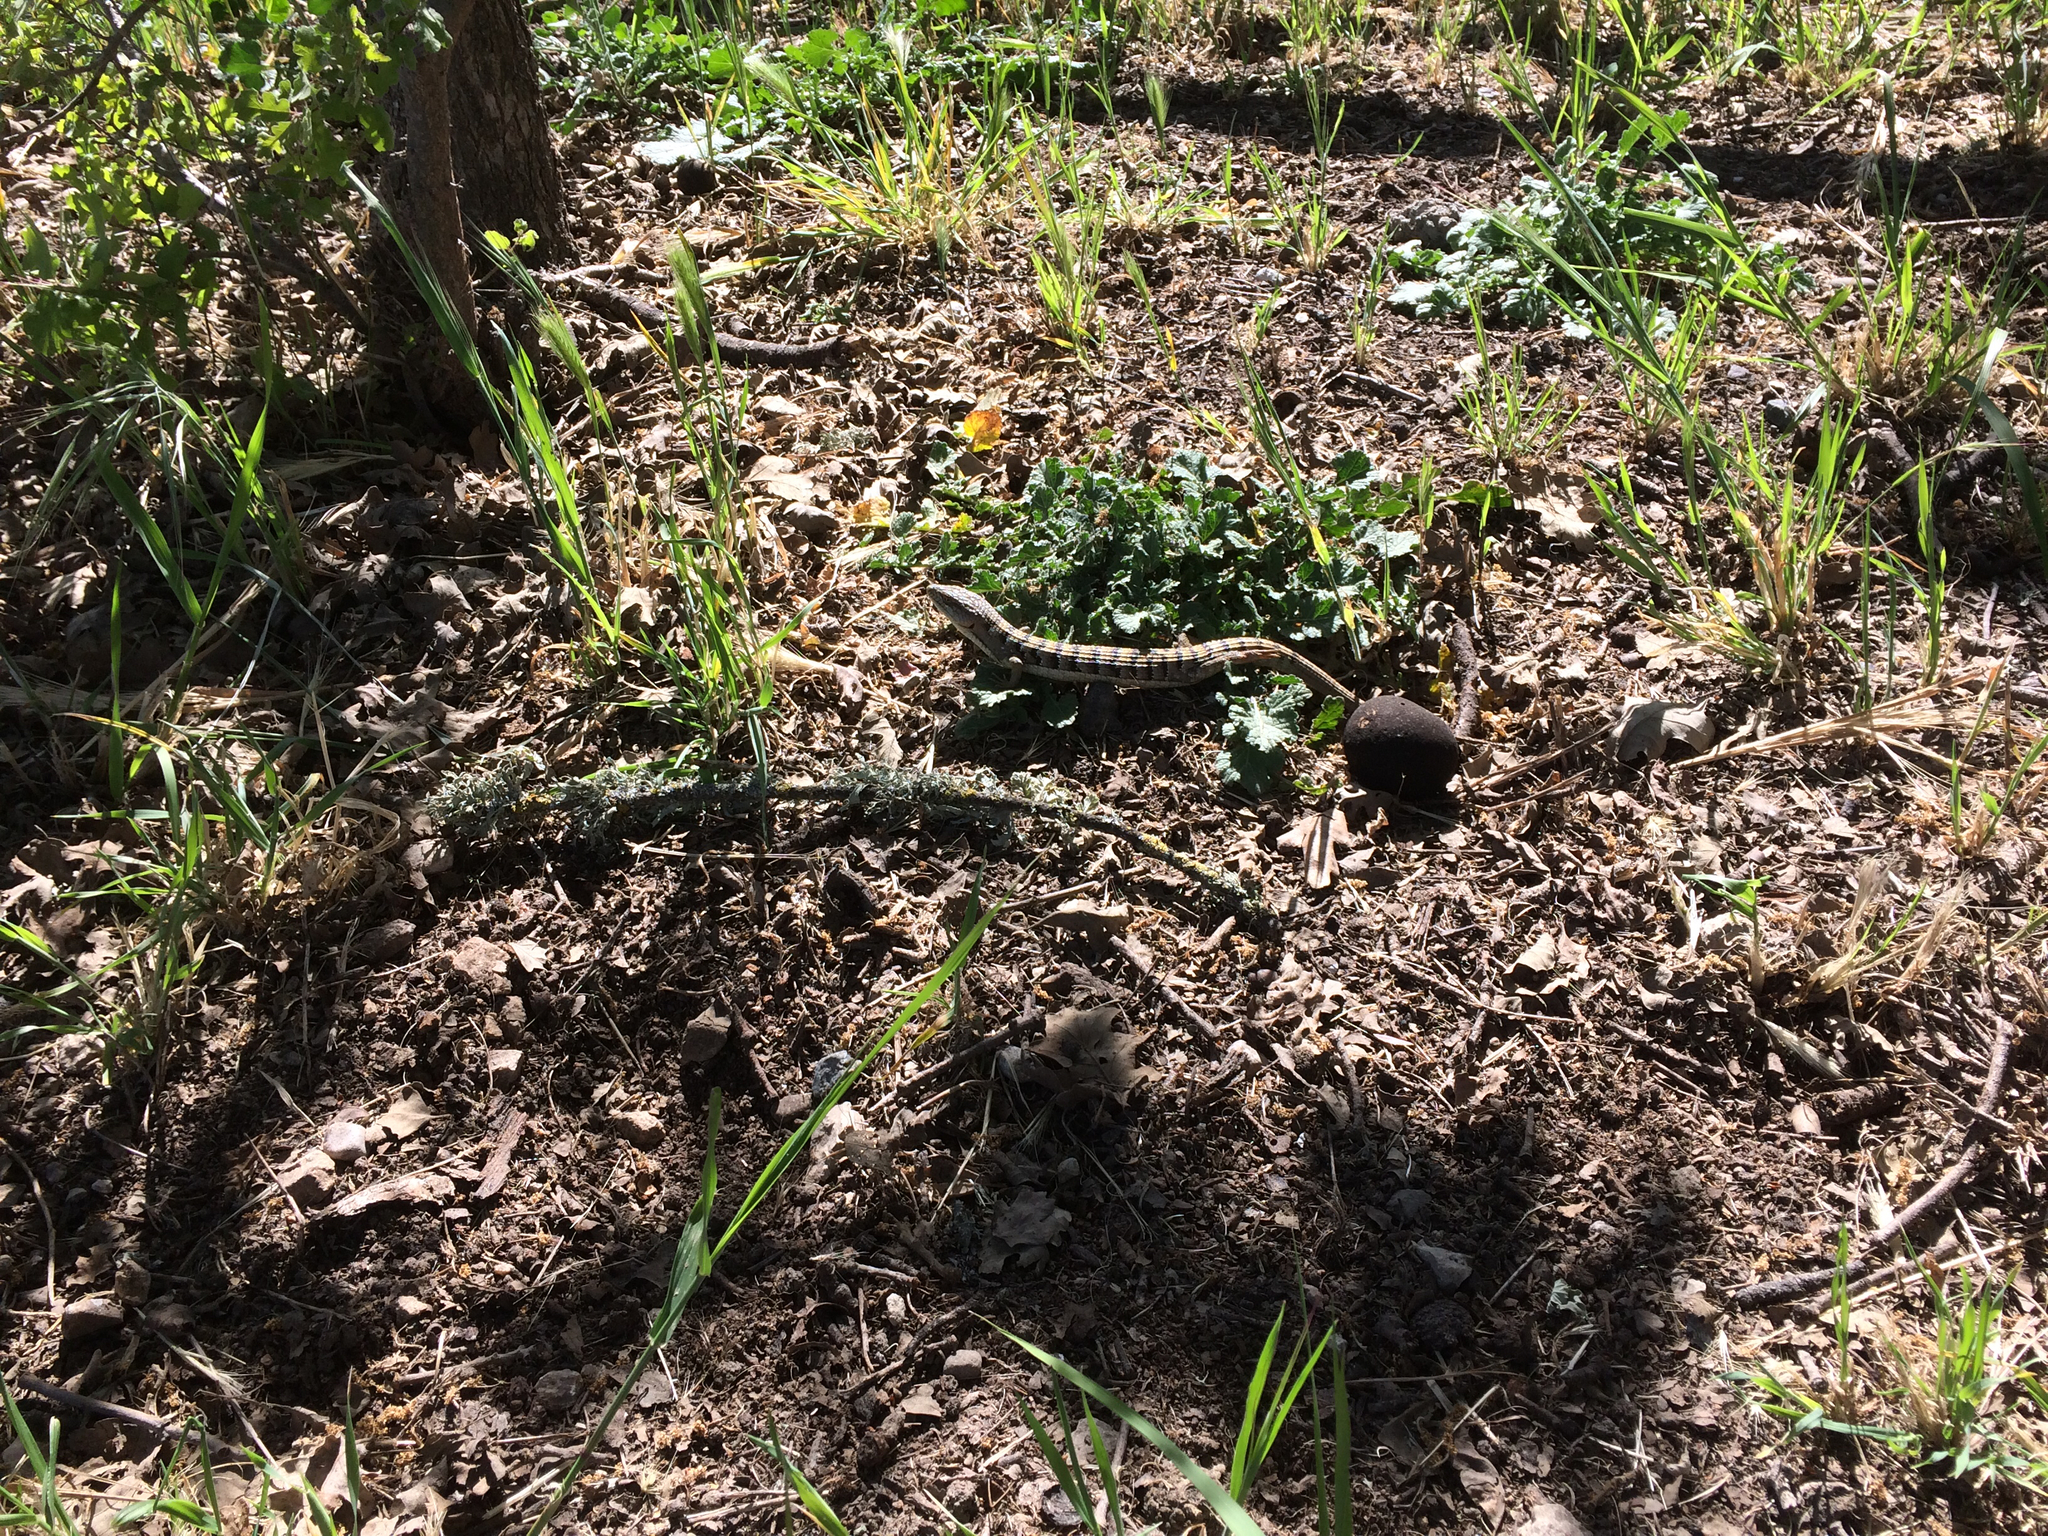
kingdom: Animalia
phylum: Chordata
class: Squamata
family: Anguidae
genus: Elgaria
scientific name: Elgaria multicarinata
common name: Southern alligator lizard
